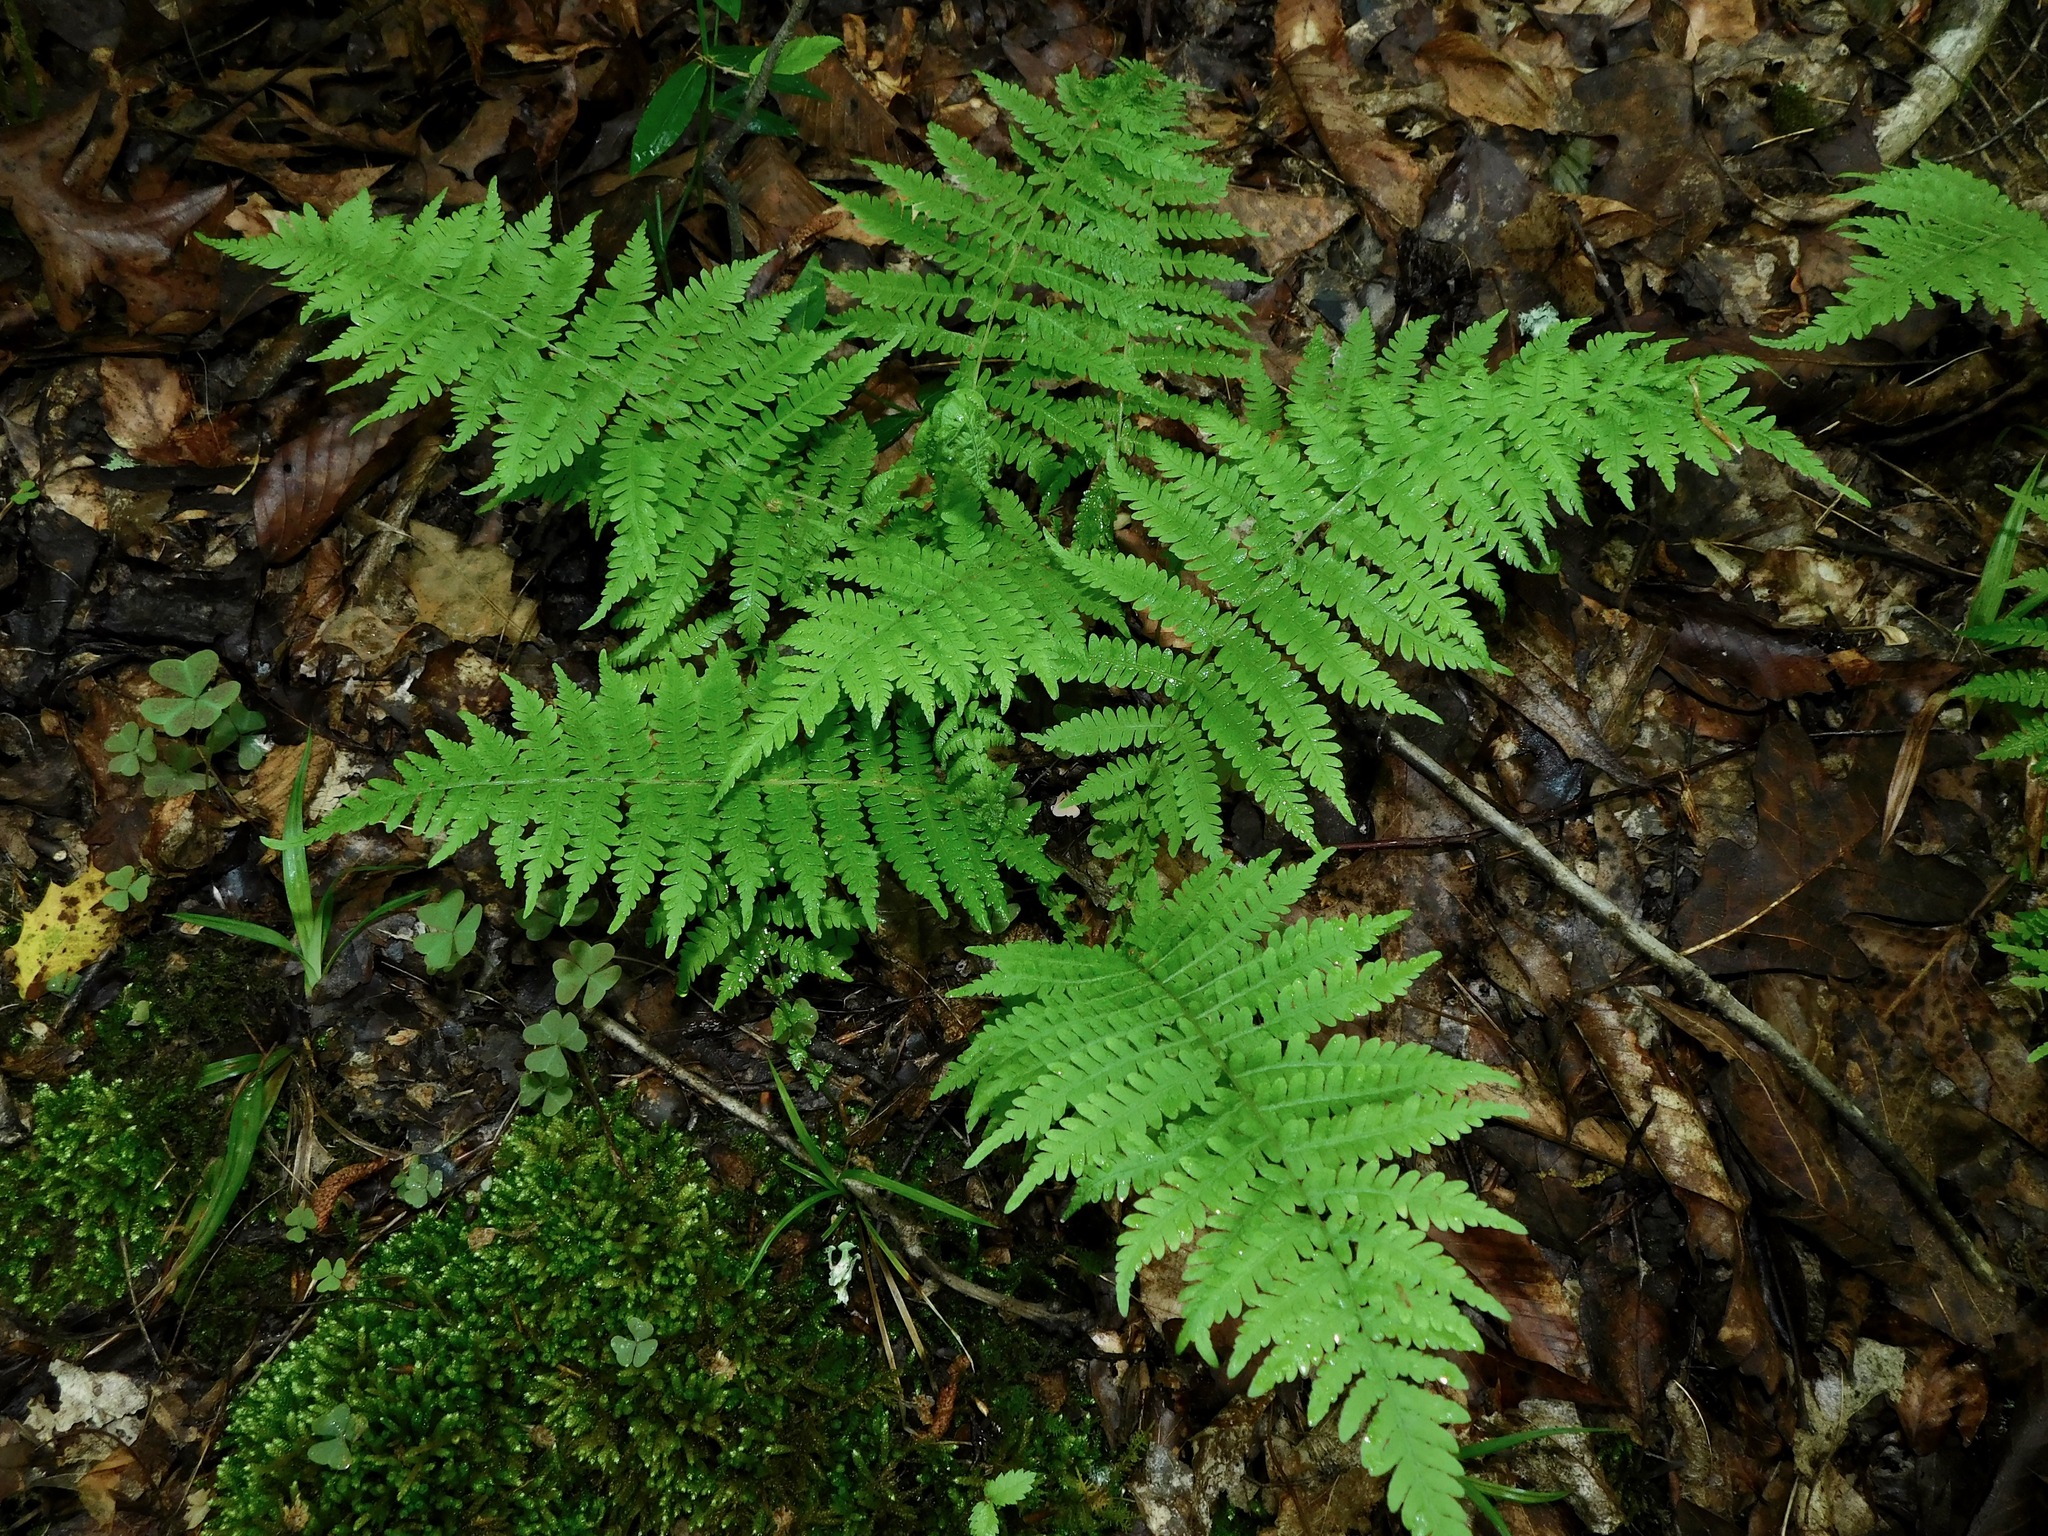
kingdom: Plantae
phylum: Tracheophyta
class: Polypodiopsida
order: Polypodiales
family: Thelypteridaceae
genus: Amauropelta
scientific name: Amauropelta noveboracensis
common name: New york fern
